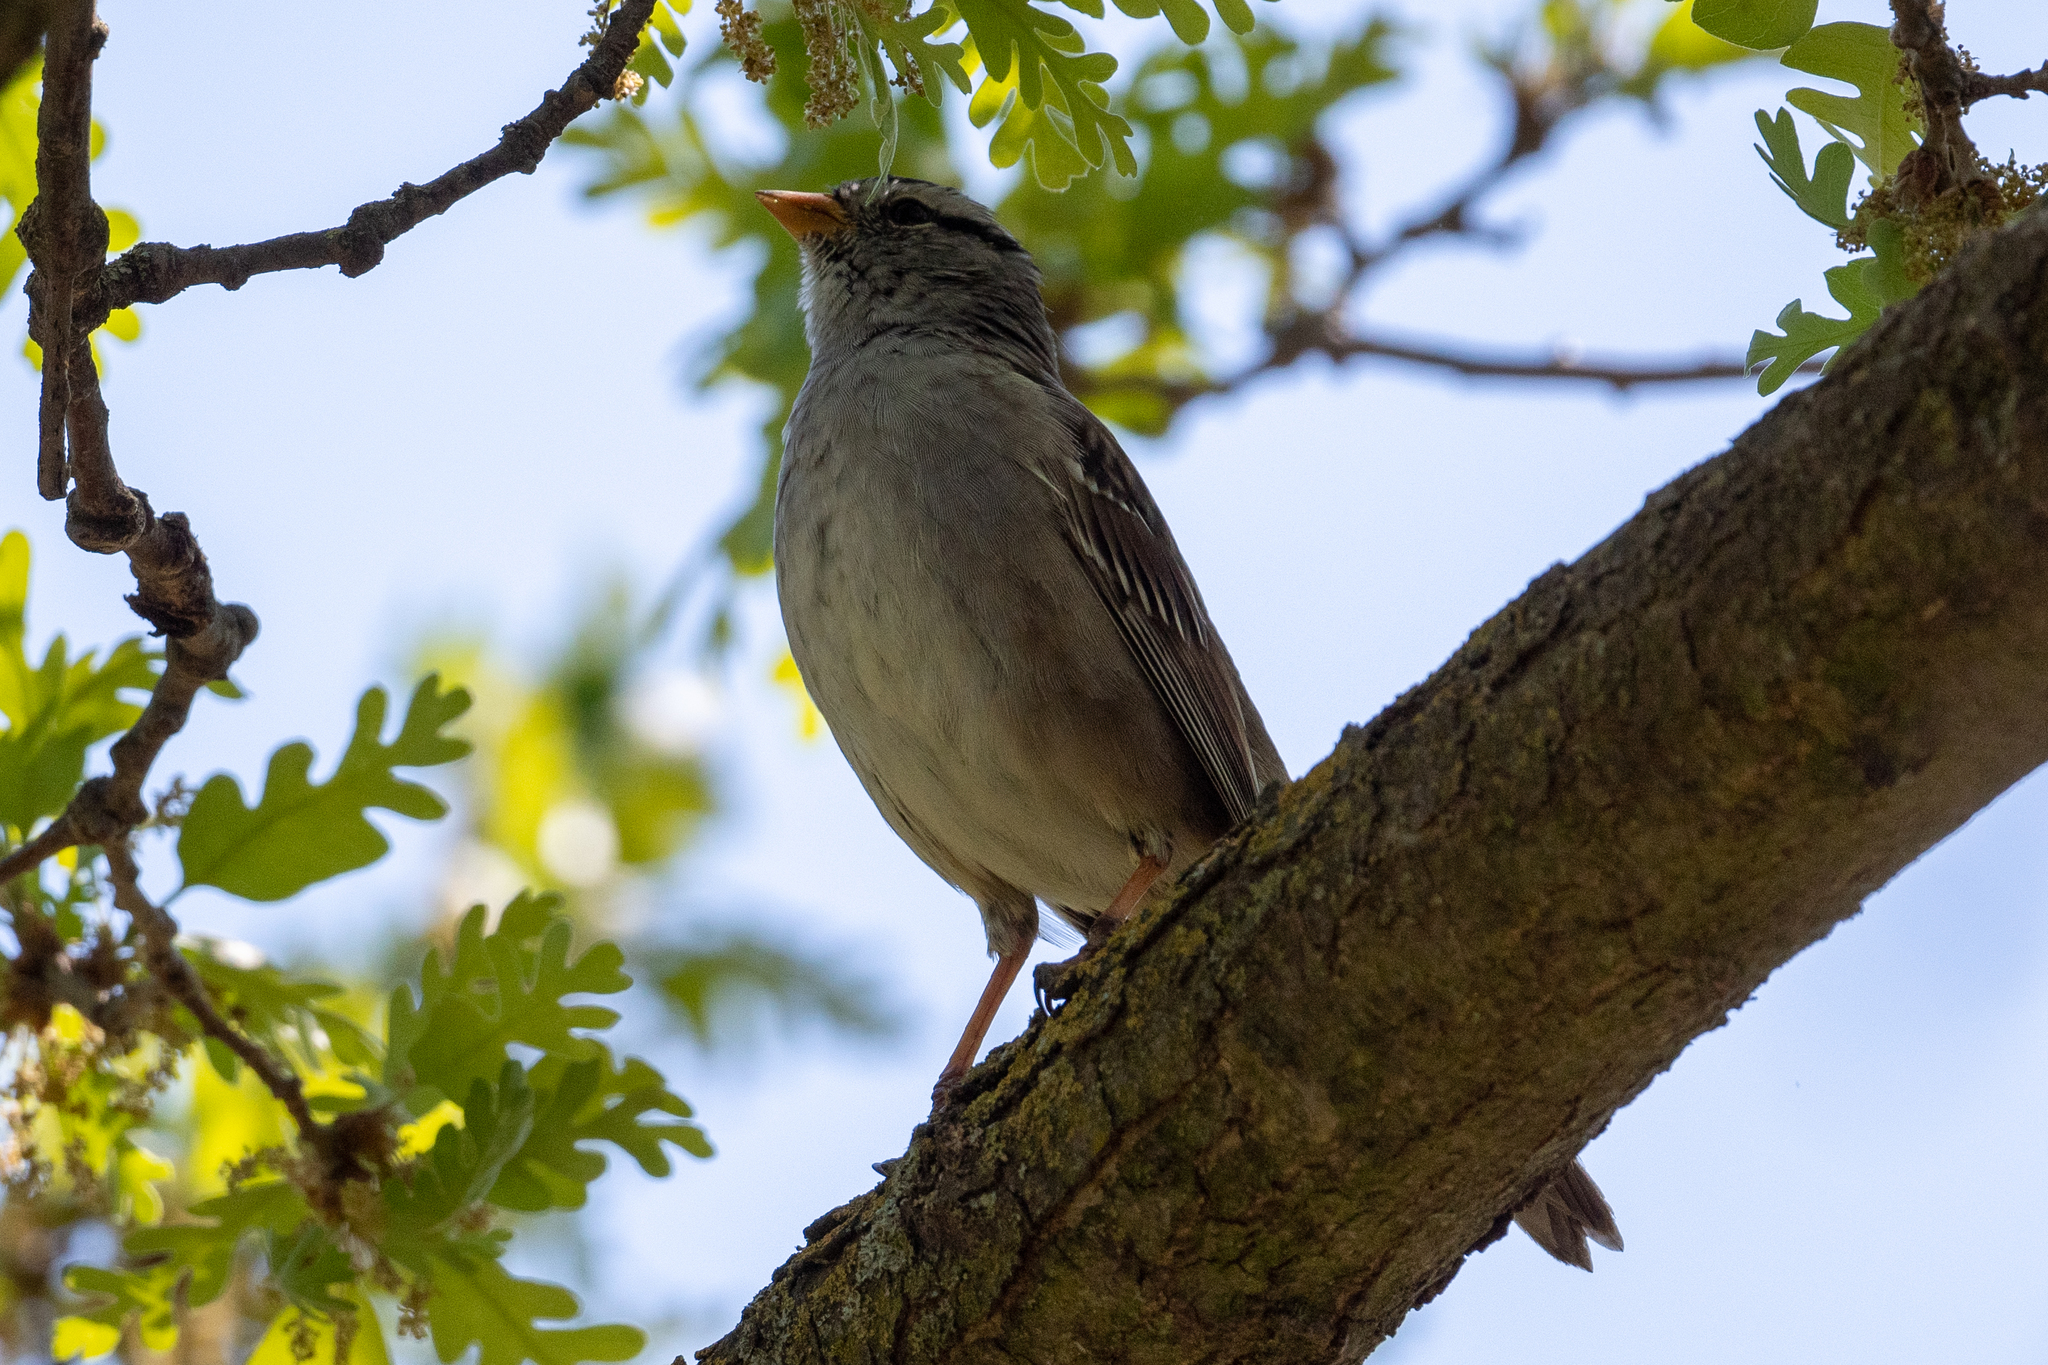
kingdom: Animalia
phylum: Chordata
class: Aves
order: Passeriformes
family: Passerellidae
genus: Zonotrichia
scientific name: Zonotrichia leucophrys
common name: White-crowned sparrow
